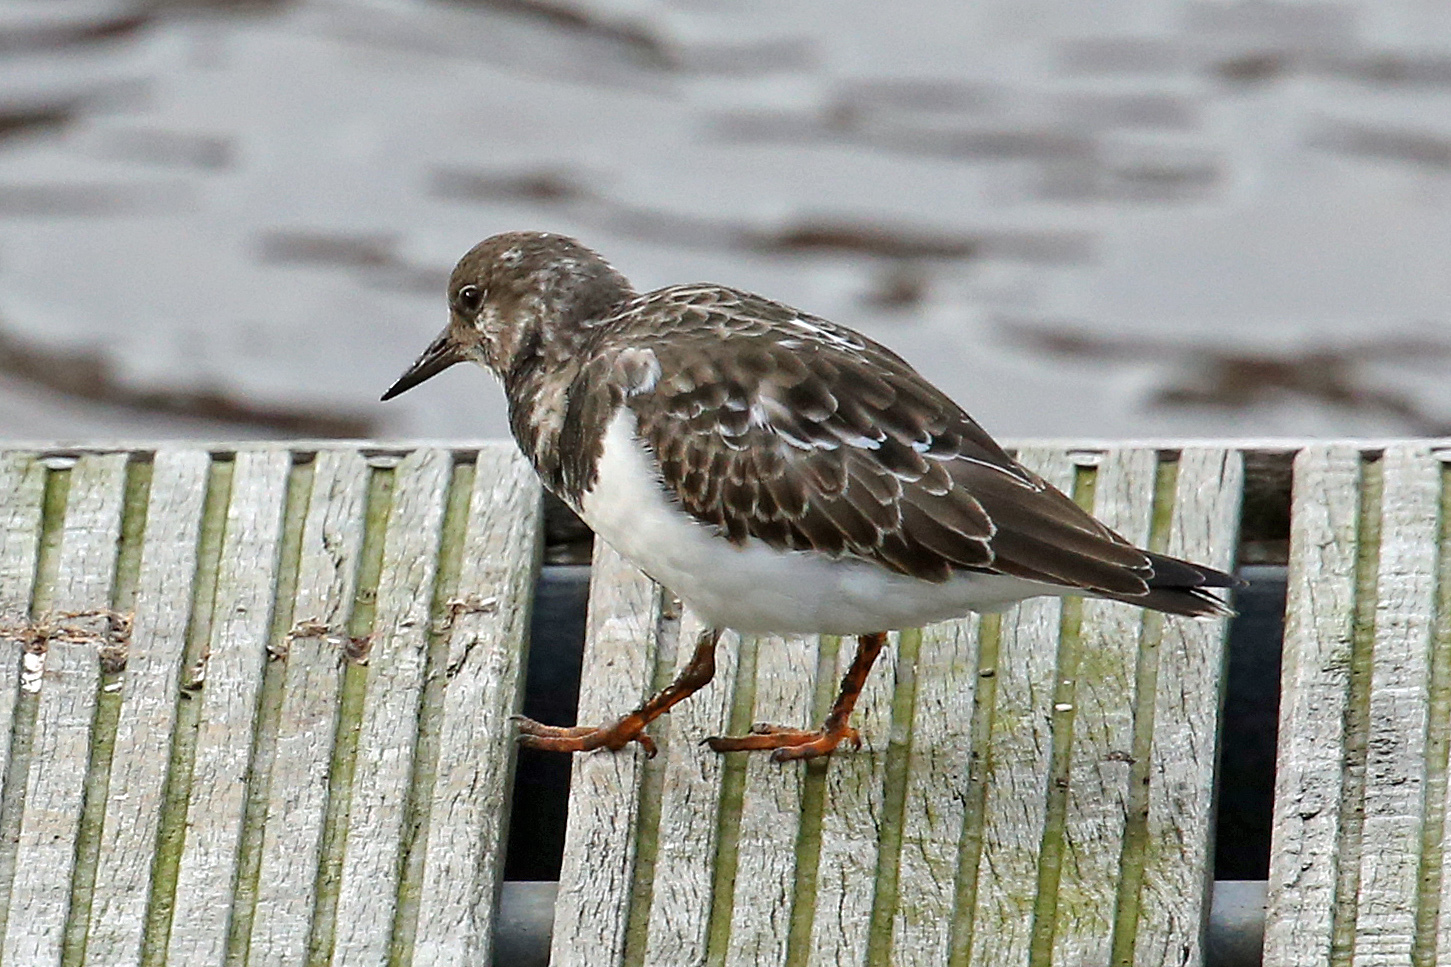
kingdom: Animalia
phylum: Chordata
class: Aves
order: Charadriiformes
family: Scolopacidae
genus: Arenaria
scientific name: Arenaria interpres
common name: Ruddy turnstone
